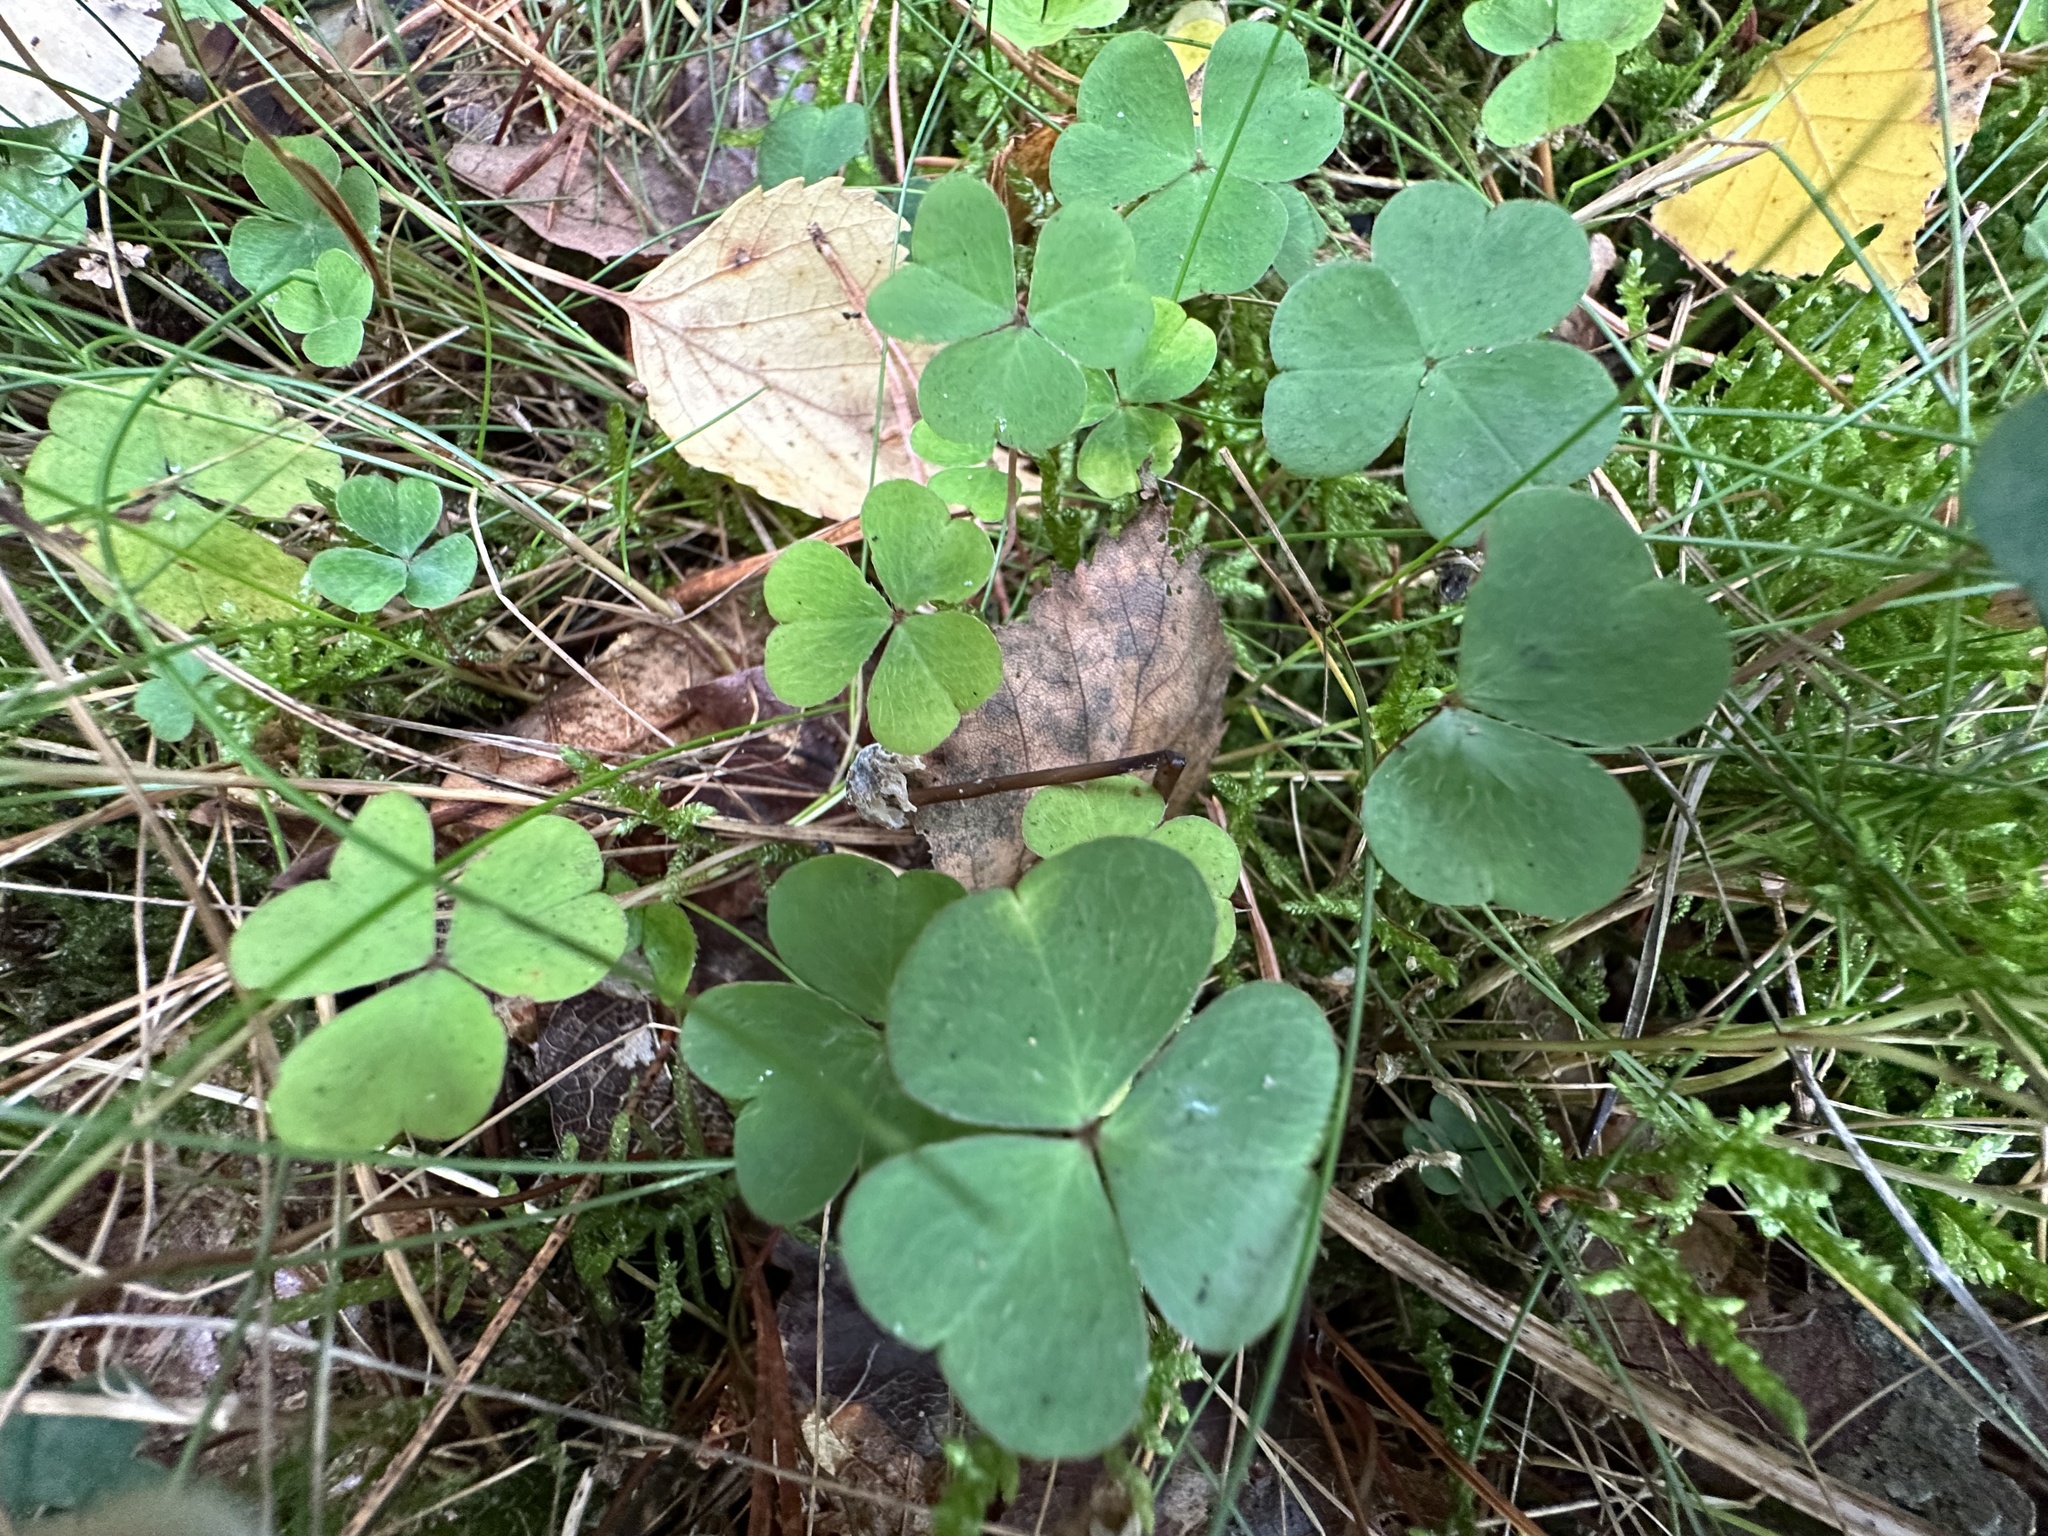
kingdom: Plantae
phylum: Tracheophyta
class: Magnoliopsida
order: Oxalidales
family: Oxalidaceae
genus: Oxalis
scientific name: Oxalis acetosella
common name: Wood-sorrel
